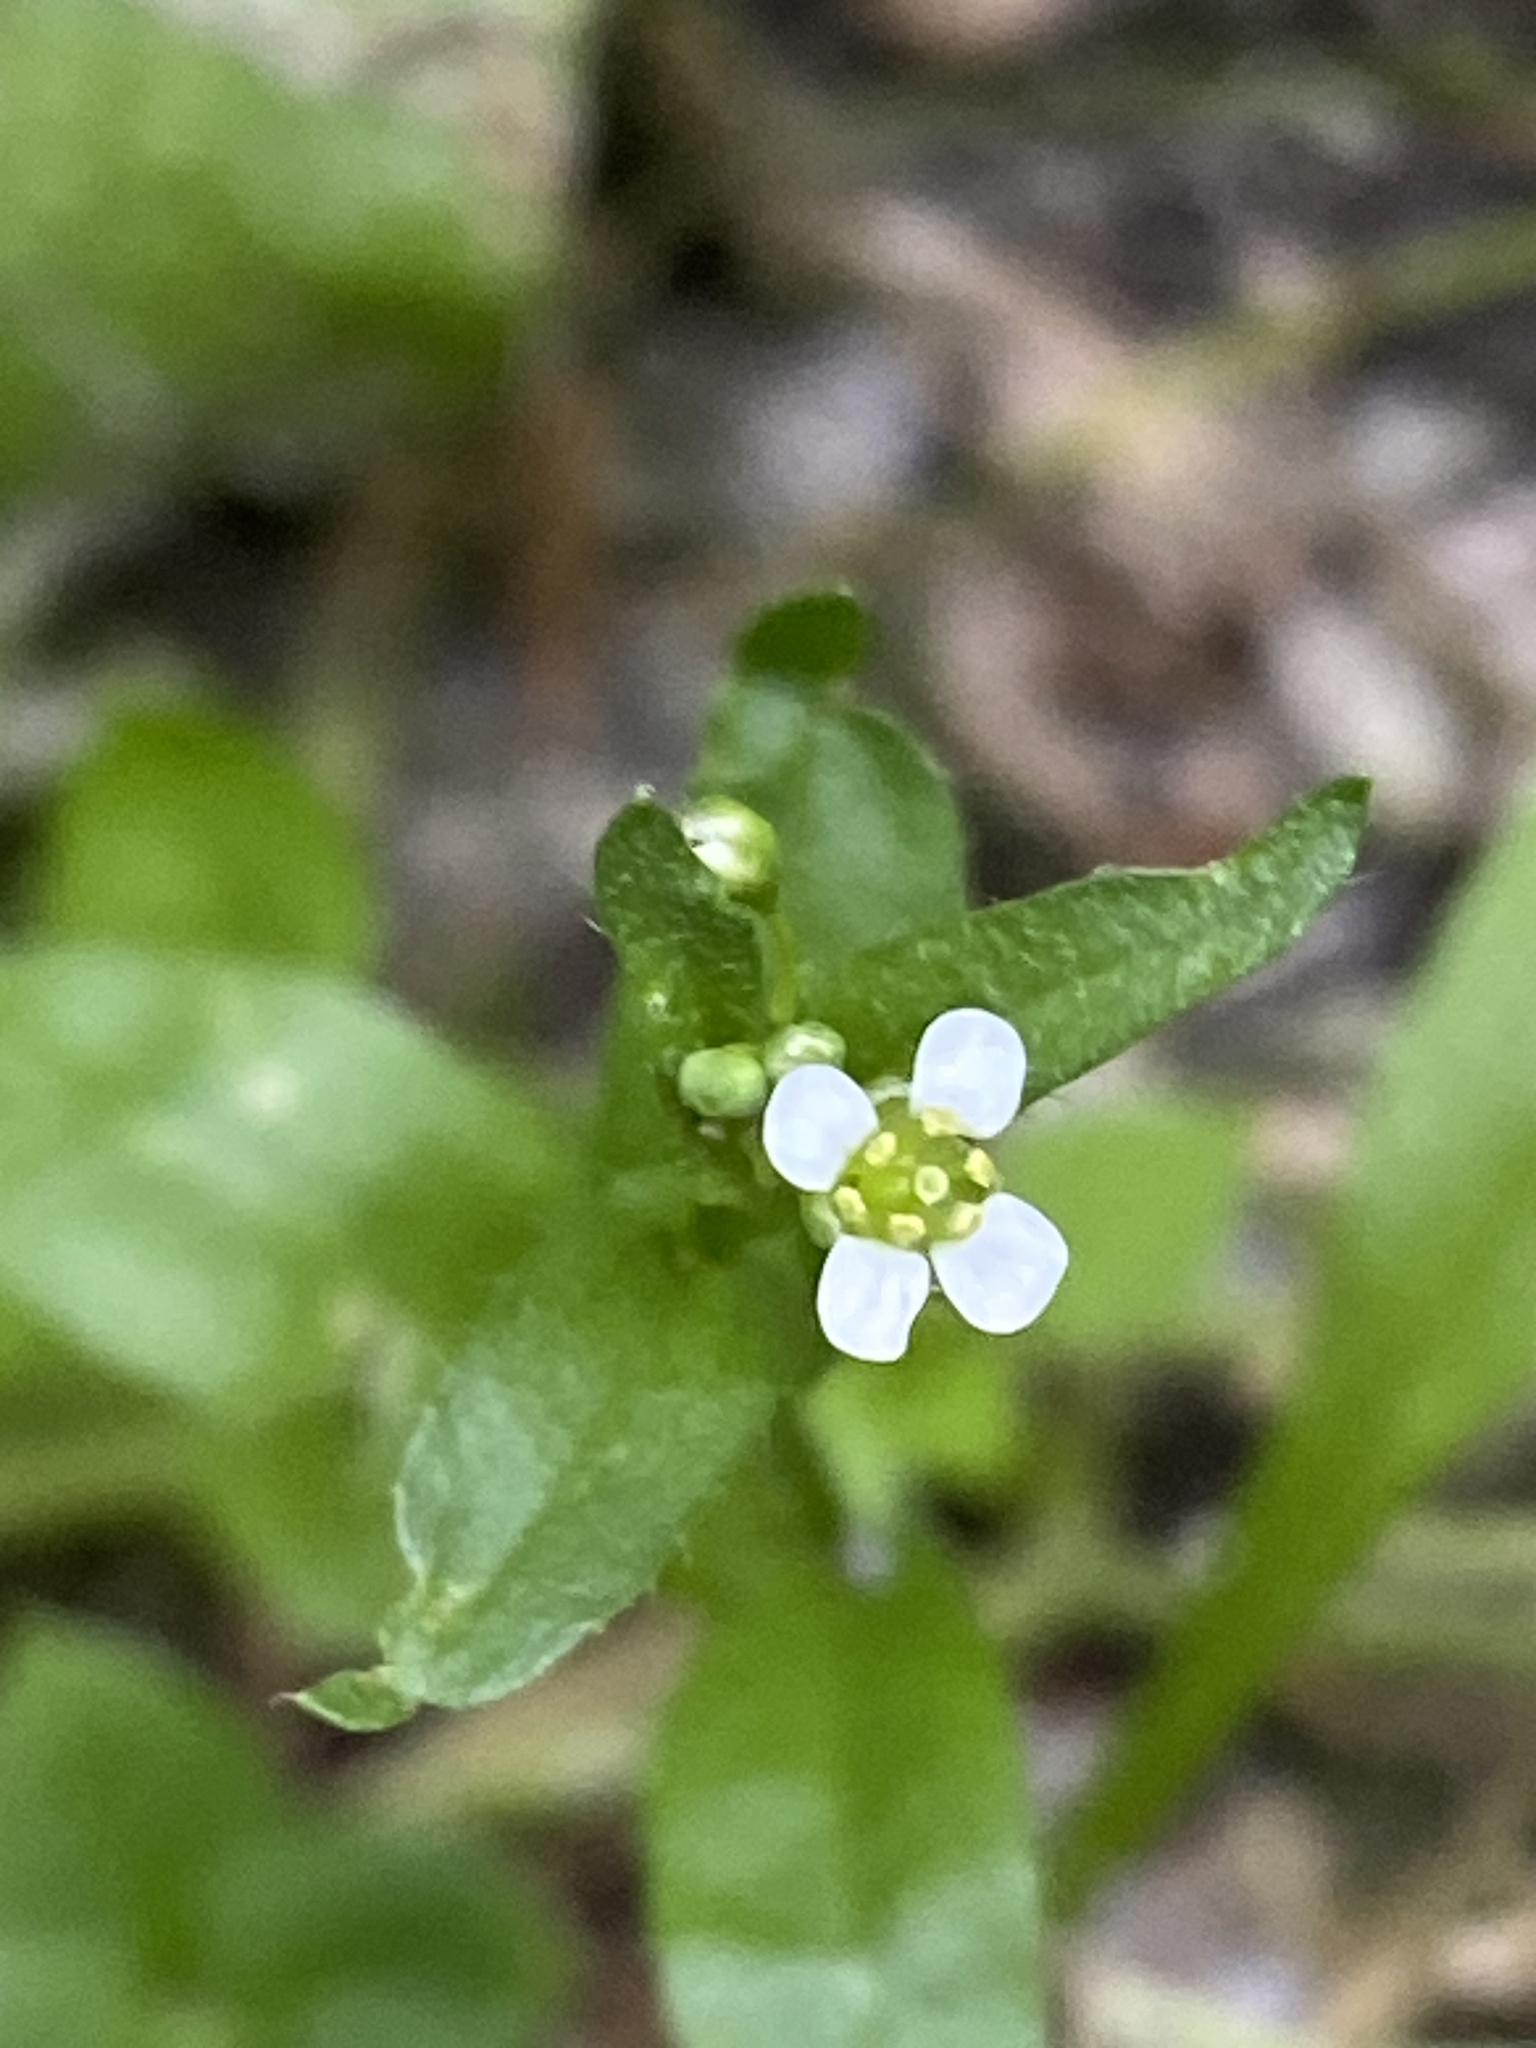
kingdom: Plantae
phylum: Tracheophyta
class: Magnoliopsida
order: Brassicales
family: Brassicaceae
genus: Capsella
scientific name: Capsella bursa-pastoris
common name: Shepherd's purse
